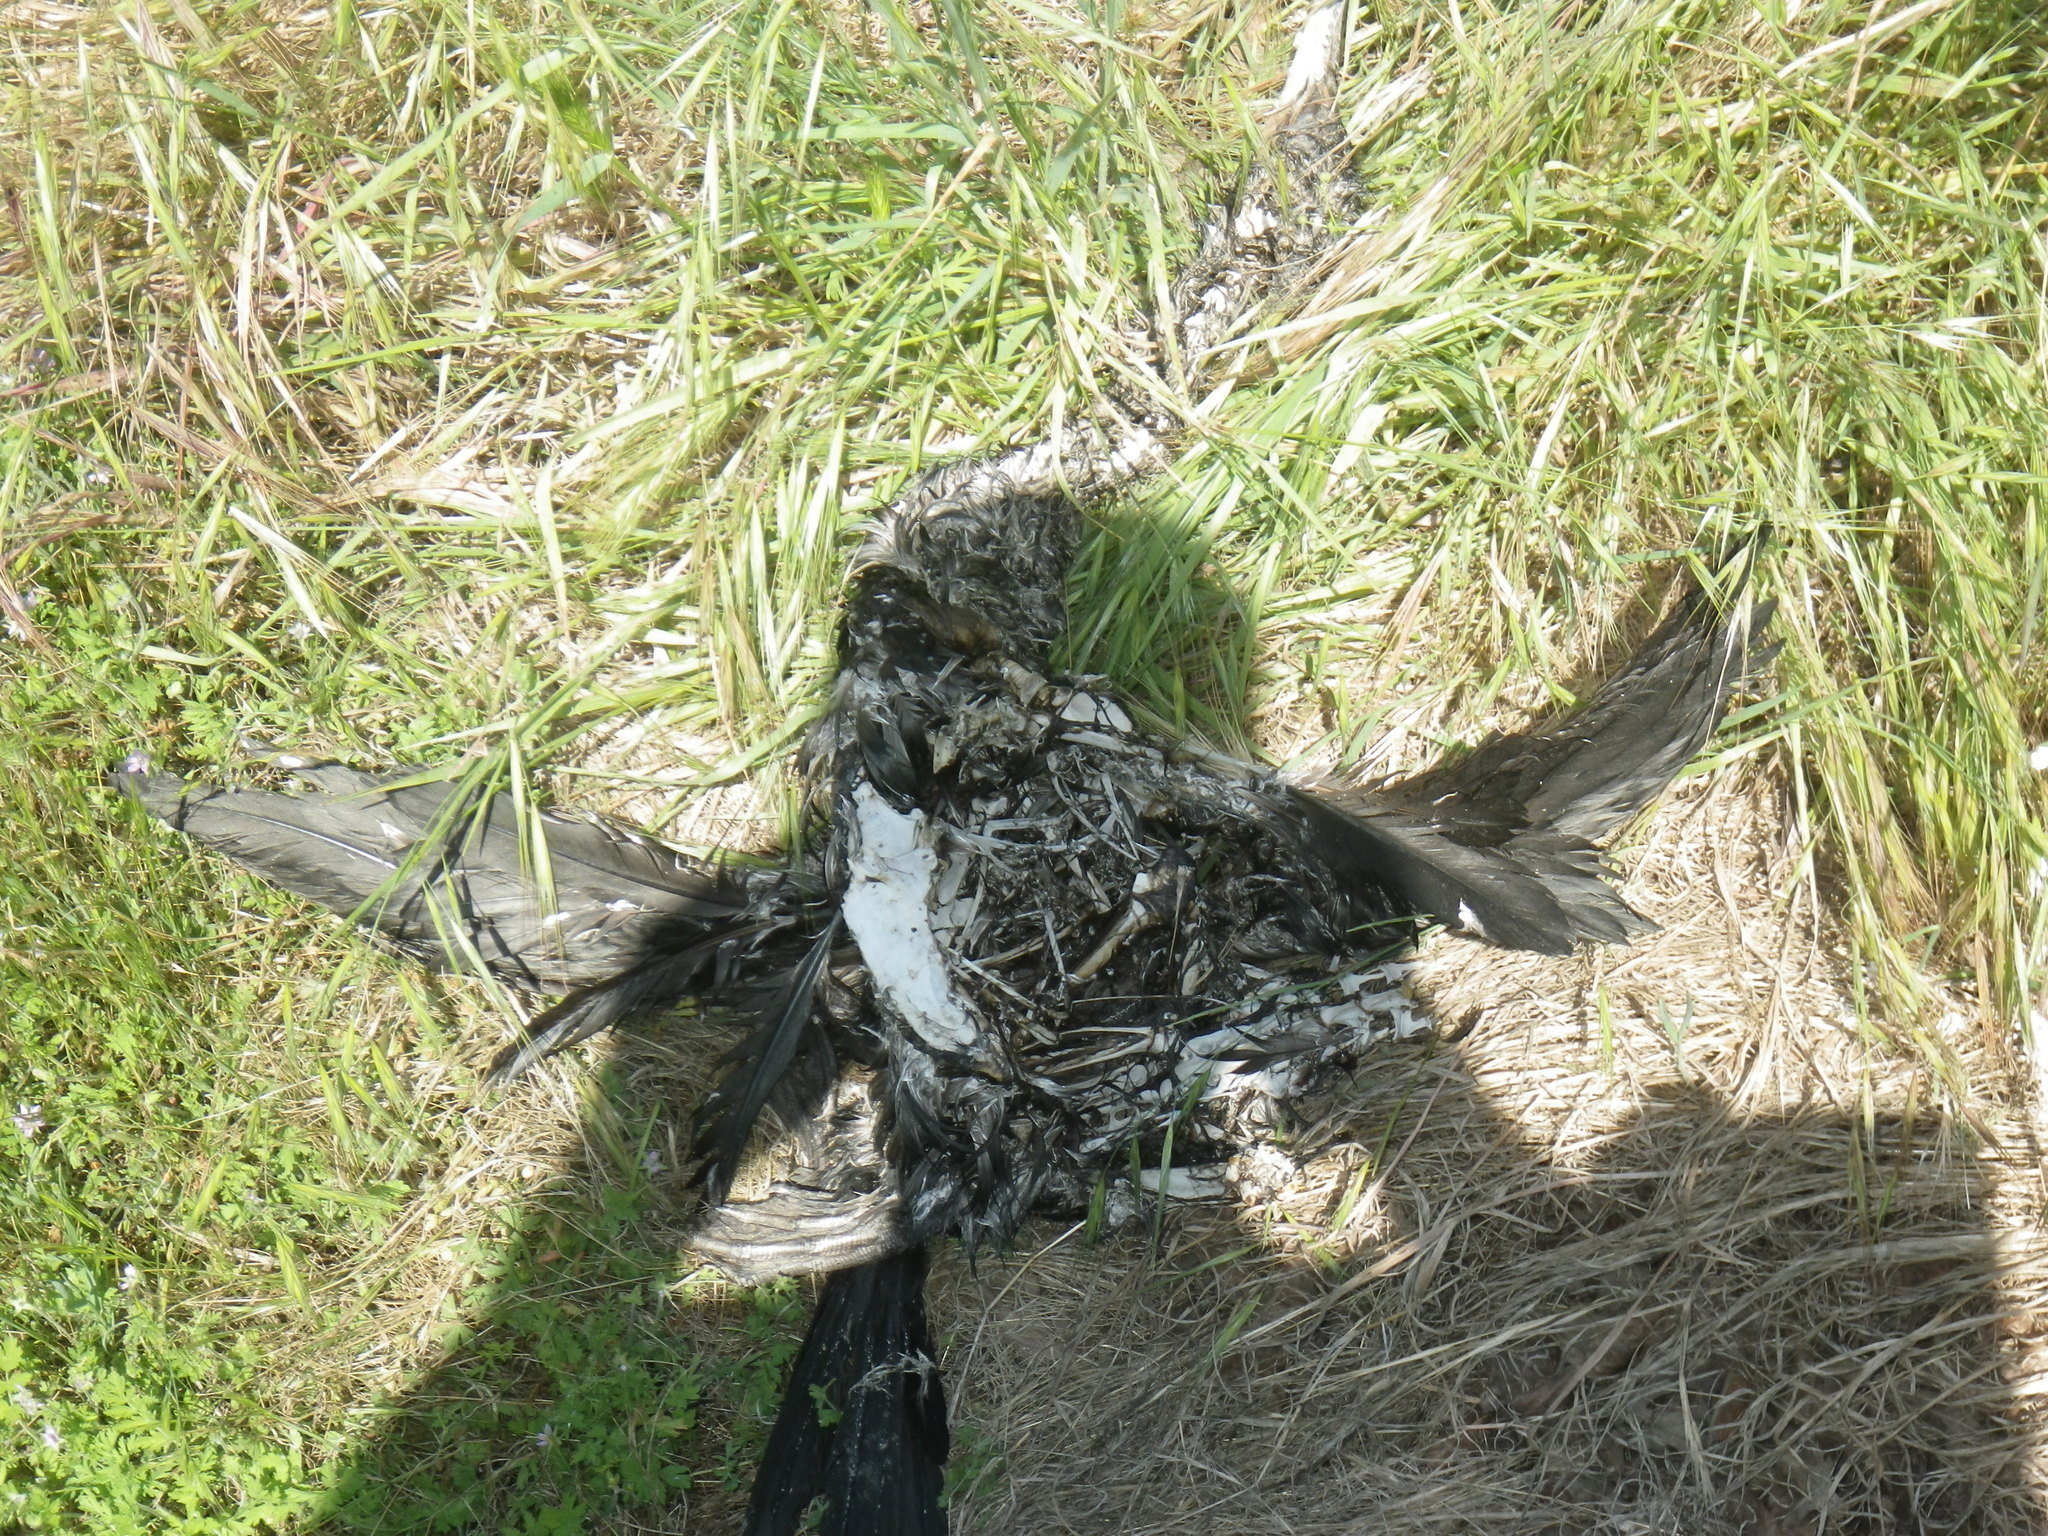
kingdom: Animalia
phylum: Chordata
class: Aves
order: Suliformes
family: Phalacrocoracidae
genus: Phalacrocorax
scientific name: Phalacrocorax auritus
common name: Double-crested cormorant
